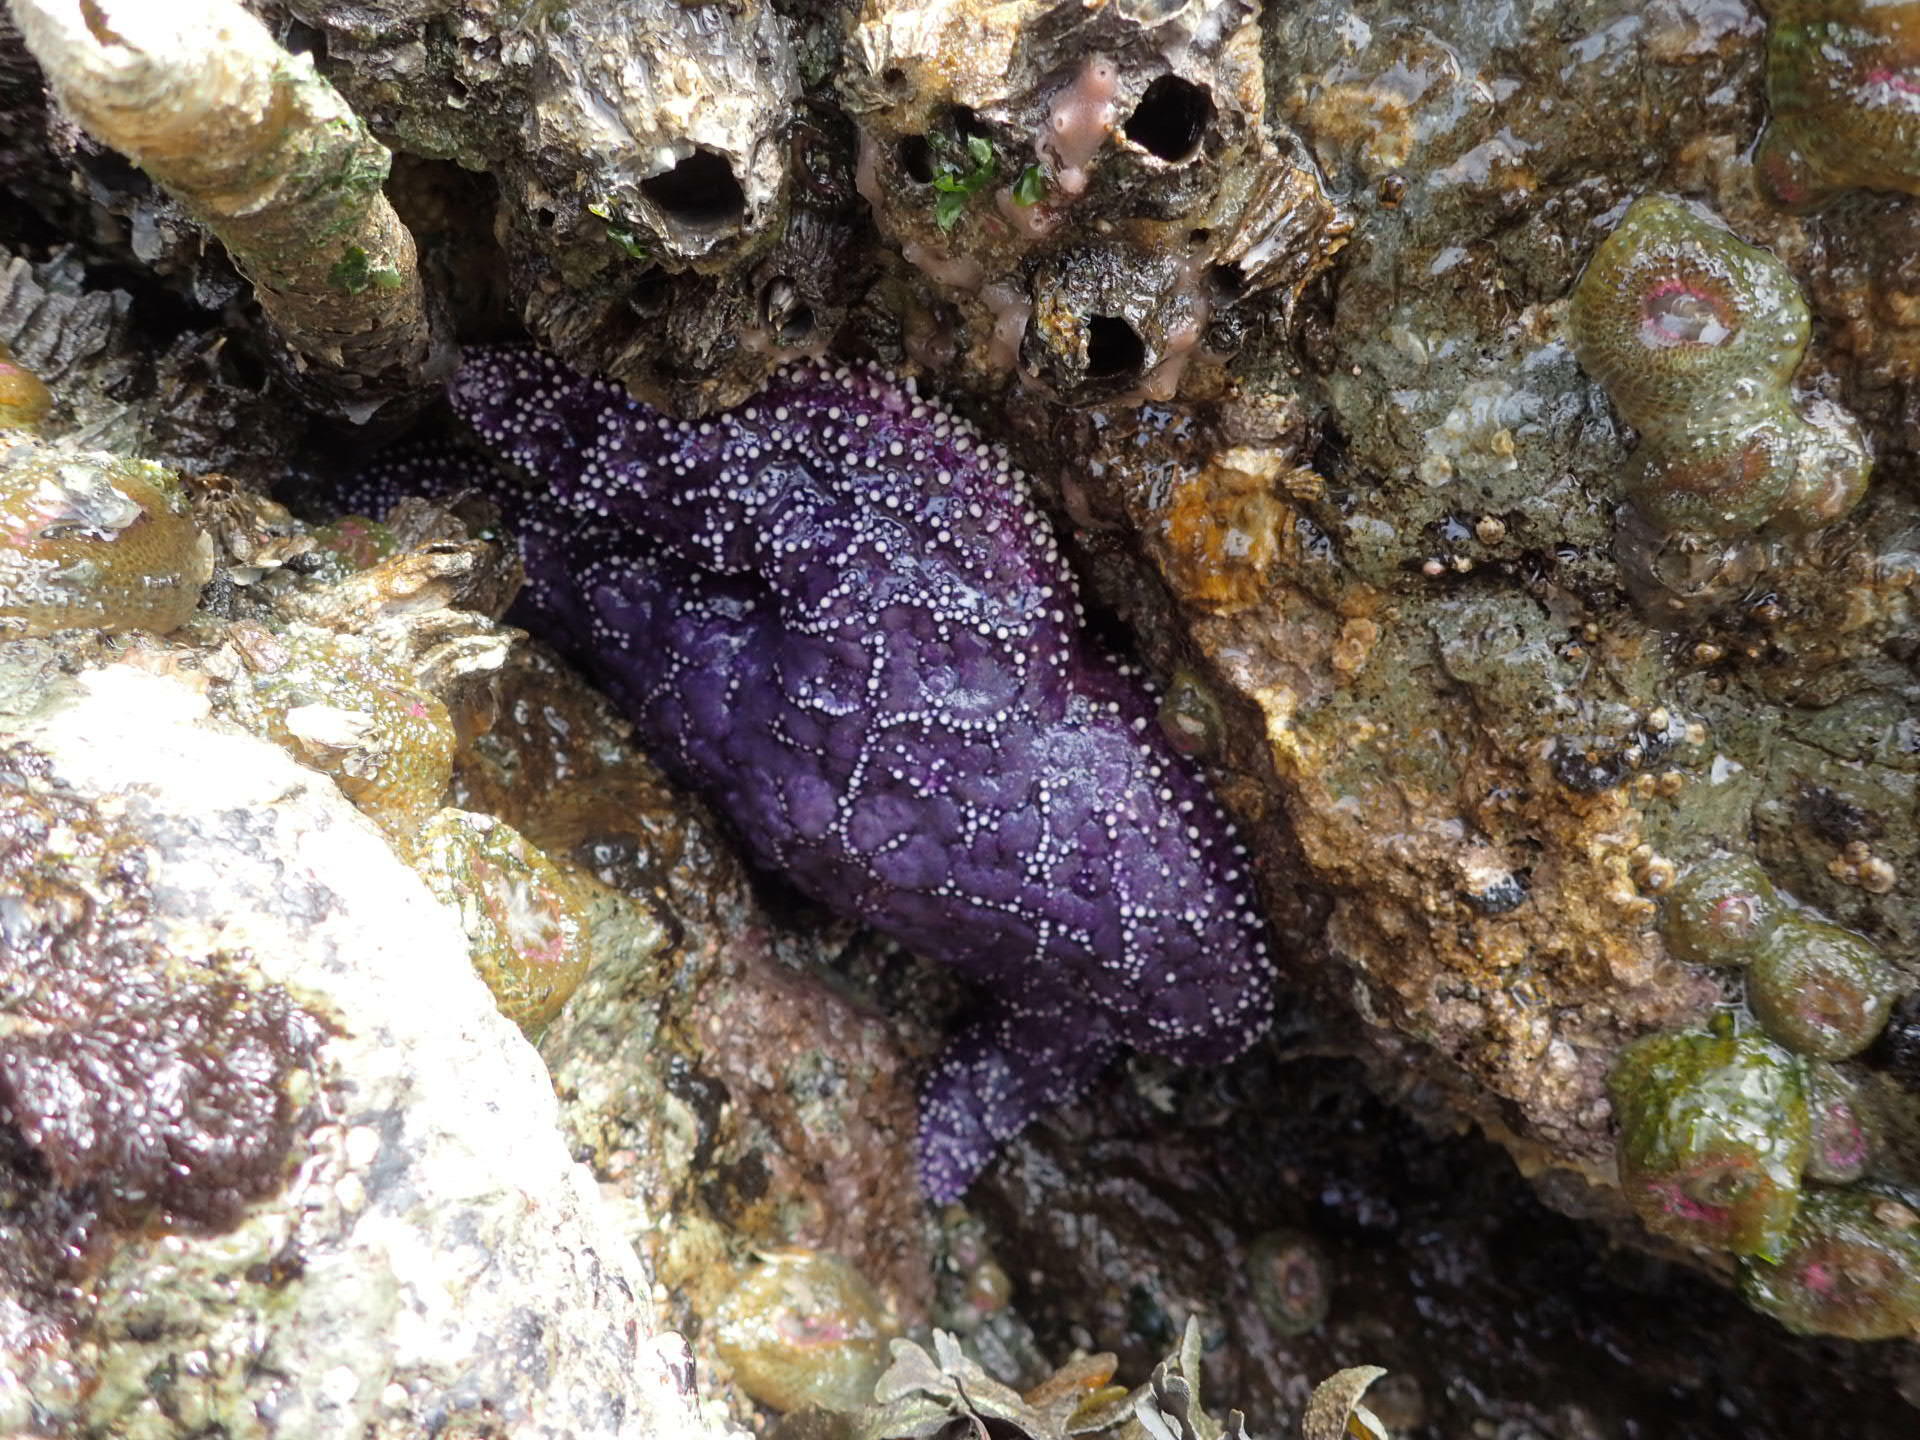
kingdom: Animalia
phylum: Echinodermata
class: Asteroidea
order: Forcipulatida
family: Asteriidae
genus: Pisaster
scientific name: Pisaster ochraceus
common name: Ochre stars
